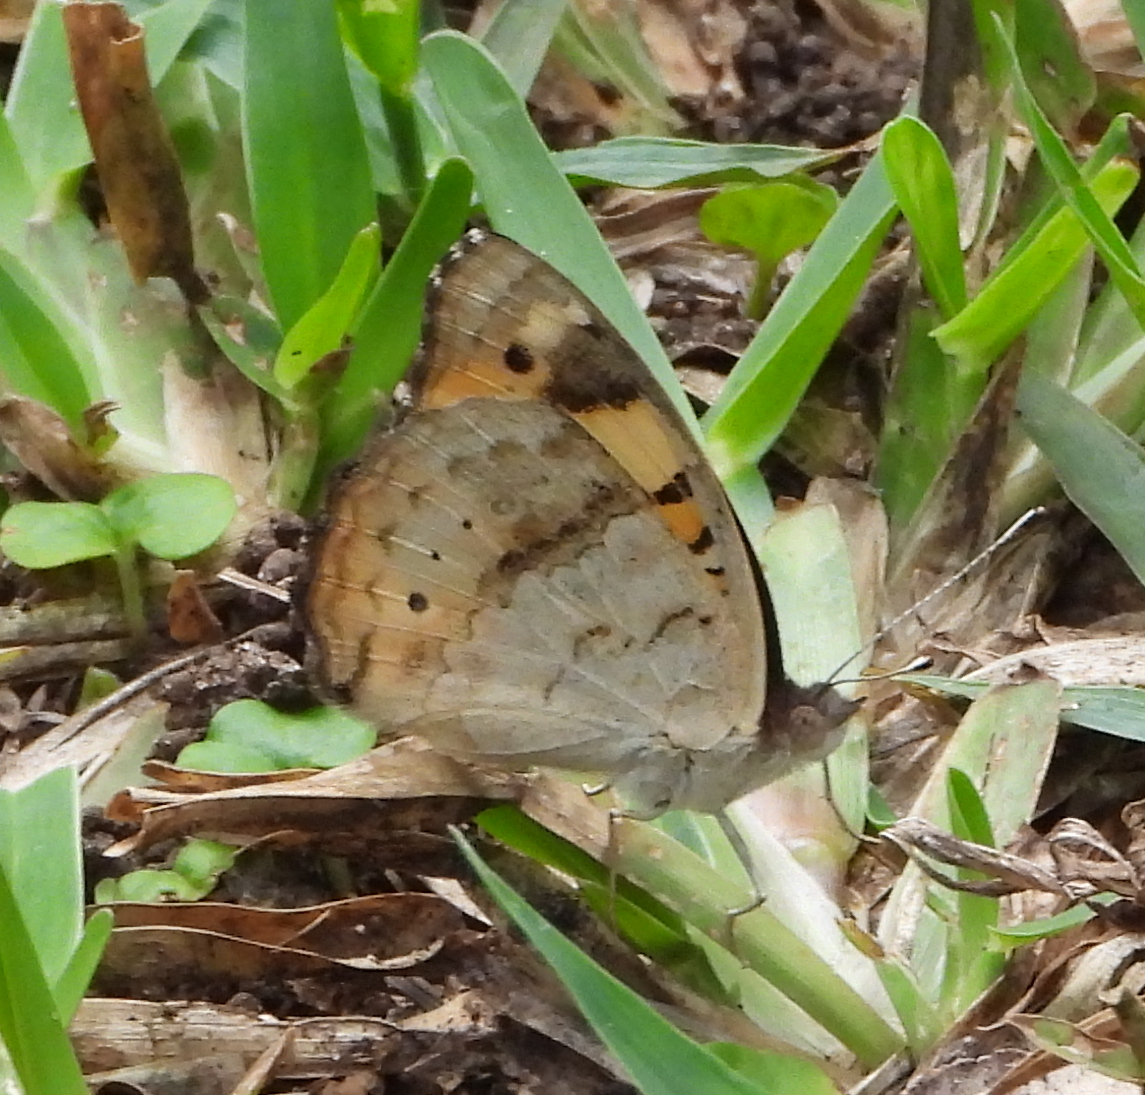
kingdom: Animalia
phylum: Arthropoda
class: Insecta
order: Lepidoptera
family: Nymphalidae
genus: Junonia
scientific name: Junonia hierta
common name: Yellow pansy
